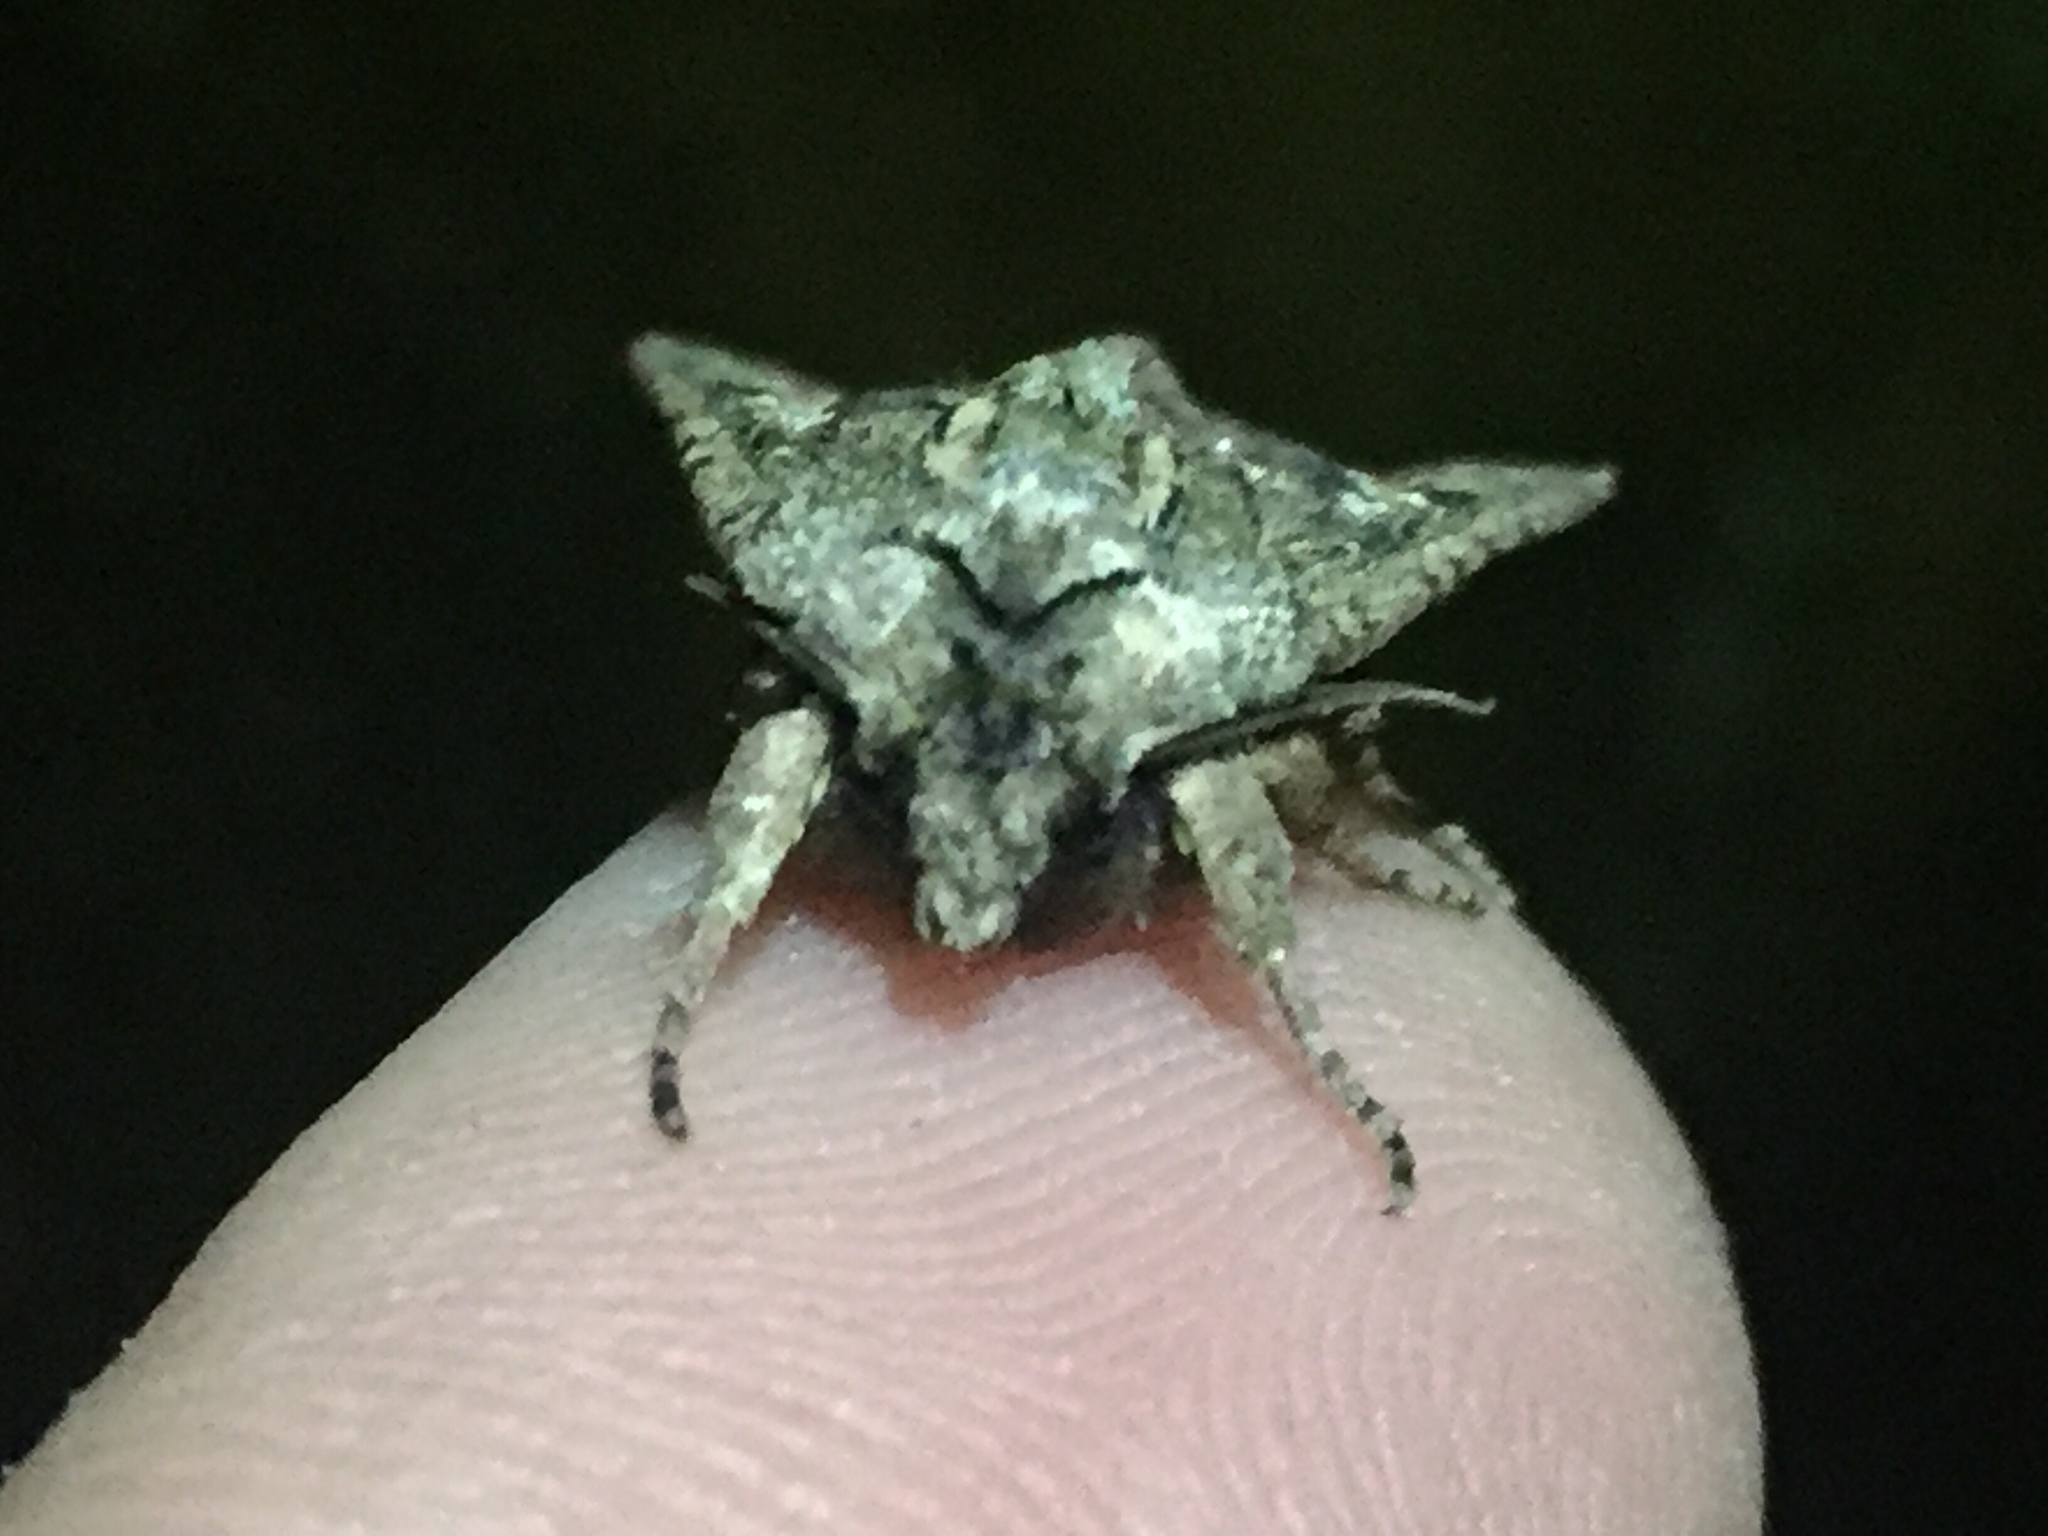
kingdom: Animalia
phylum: Arthropoda
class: Insecta
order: Lepidoptera
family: Noctuidae
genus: Ichneutica
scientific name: Ichneutica mutans
